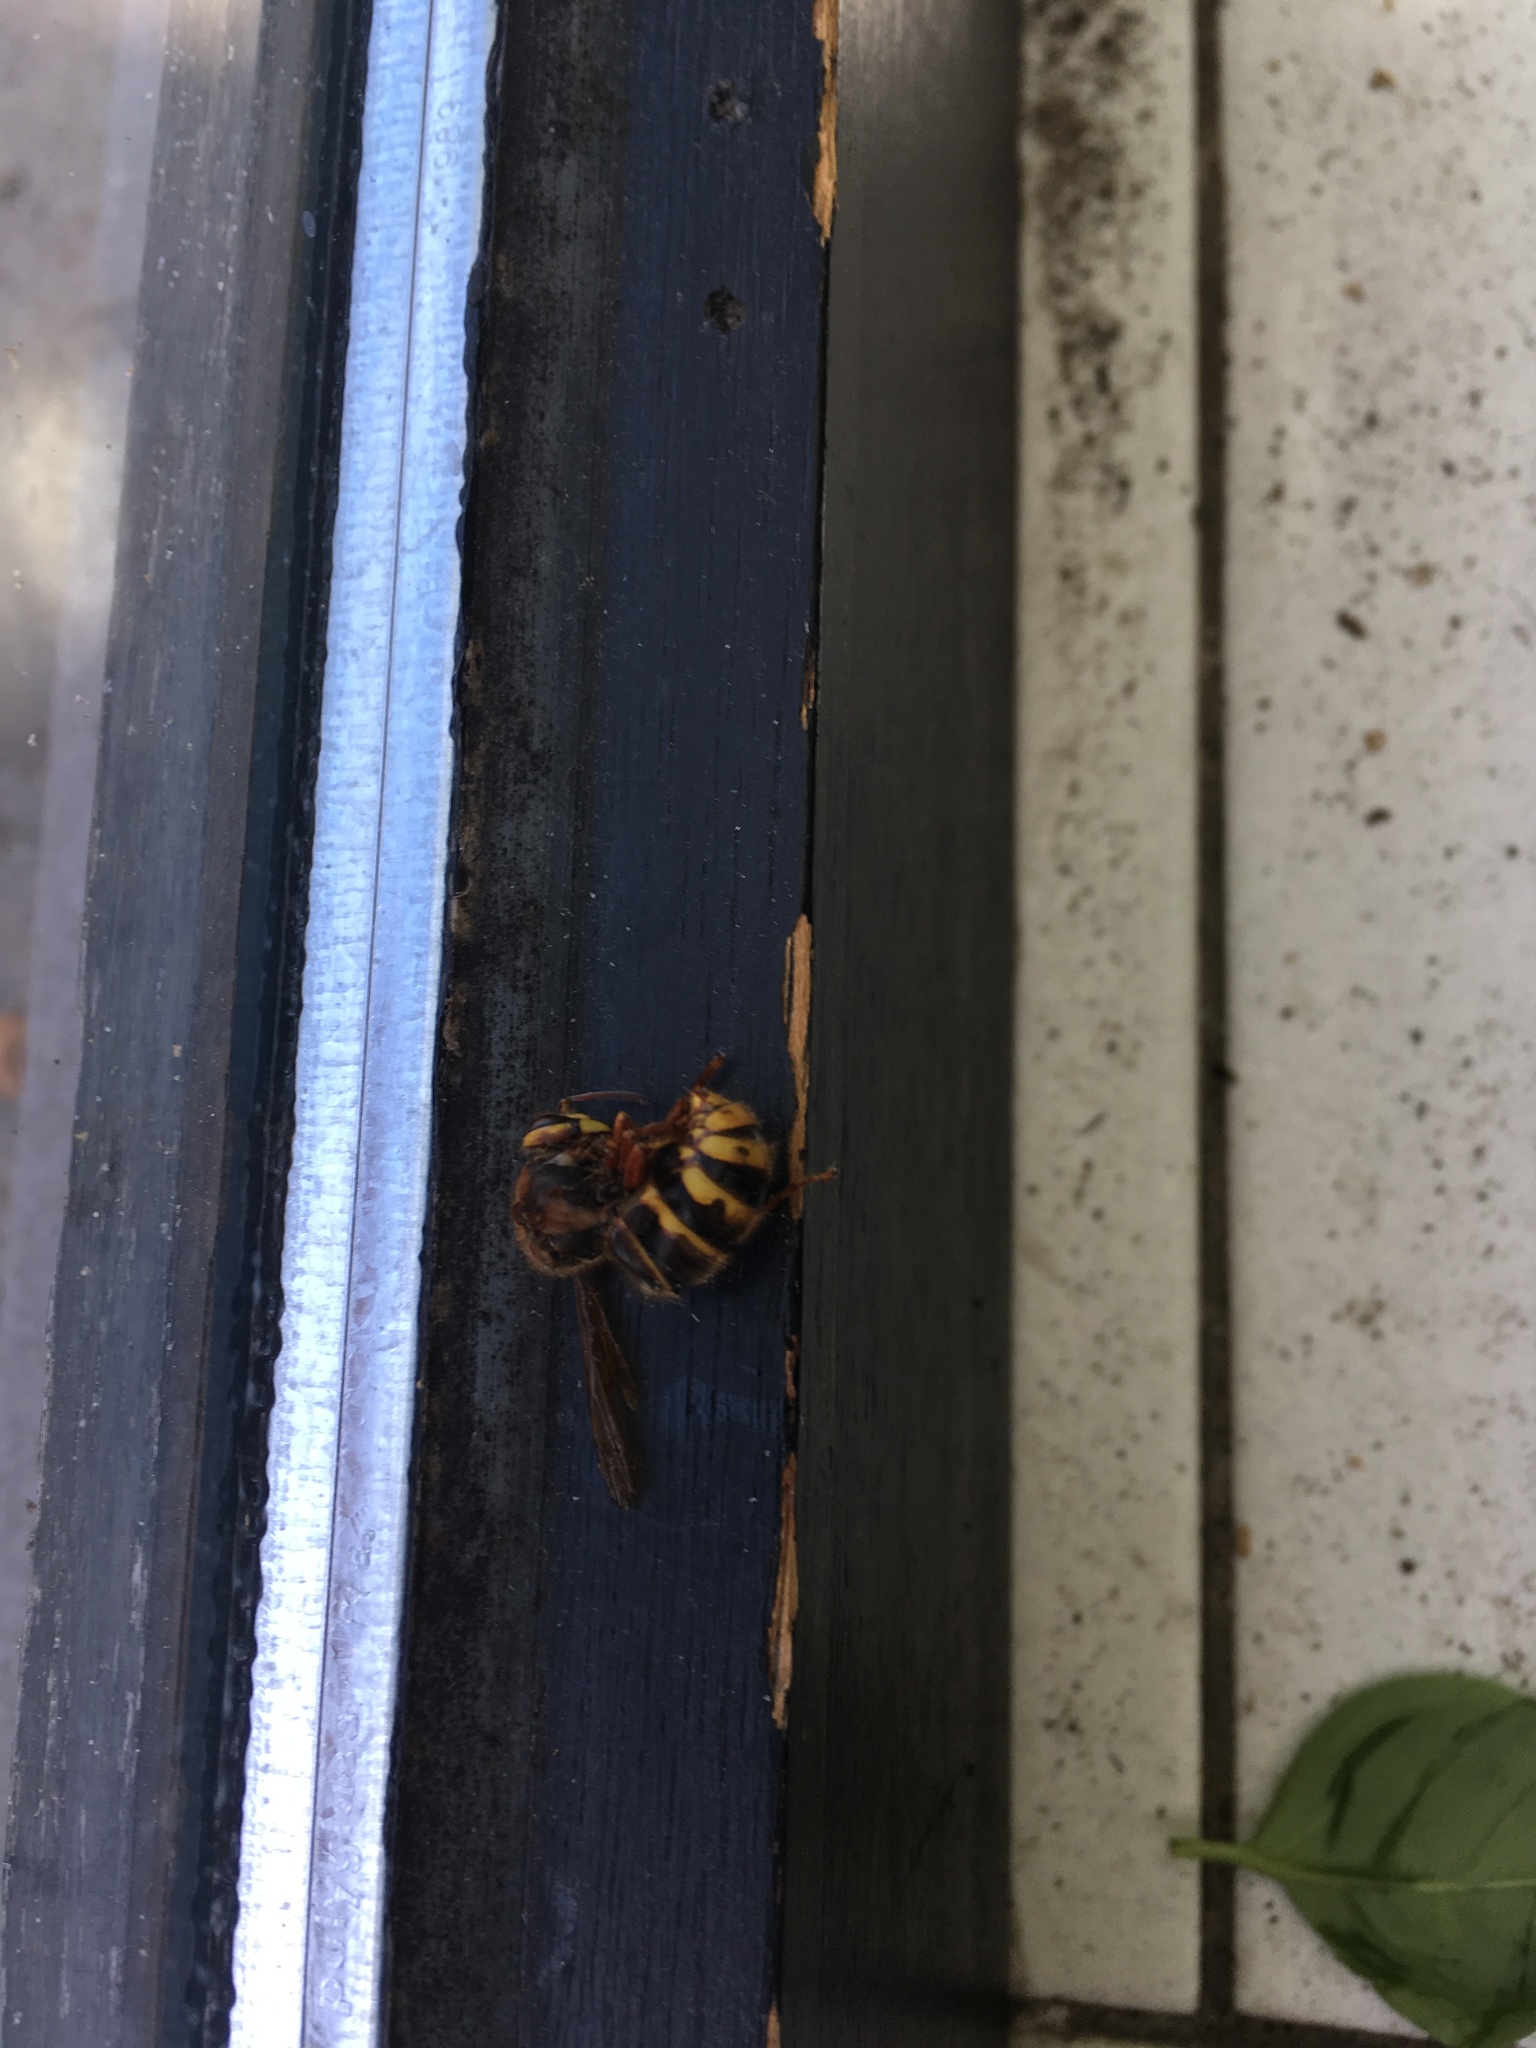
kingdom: Animalia
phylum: Arthropoda
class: Insecta
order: Hymenoptera
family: Vespidae
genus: Vespa
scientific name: Vespa crabro
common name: Hornet
